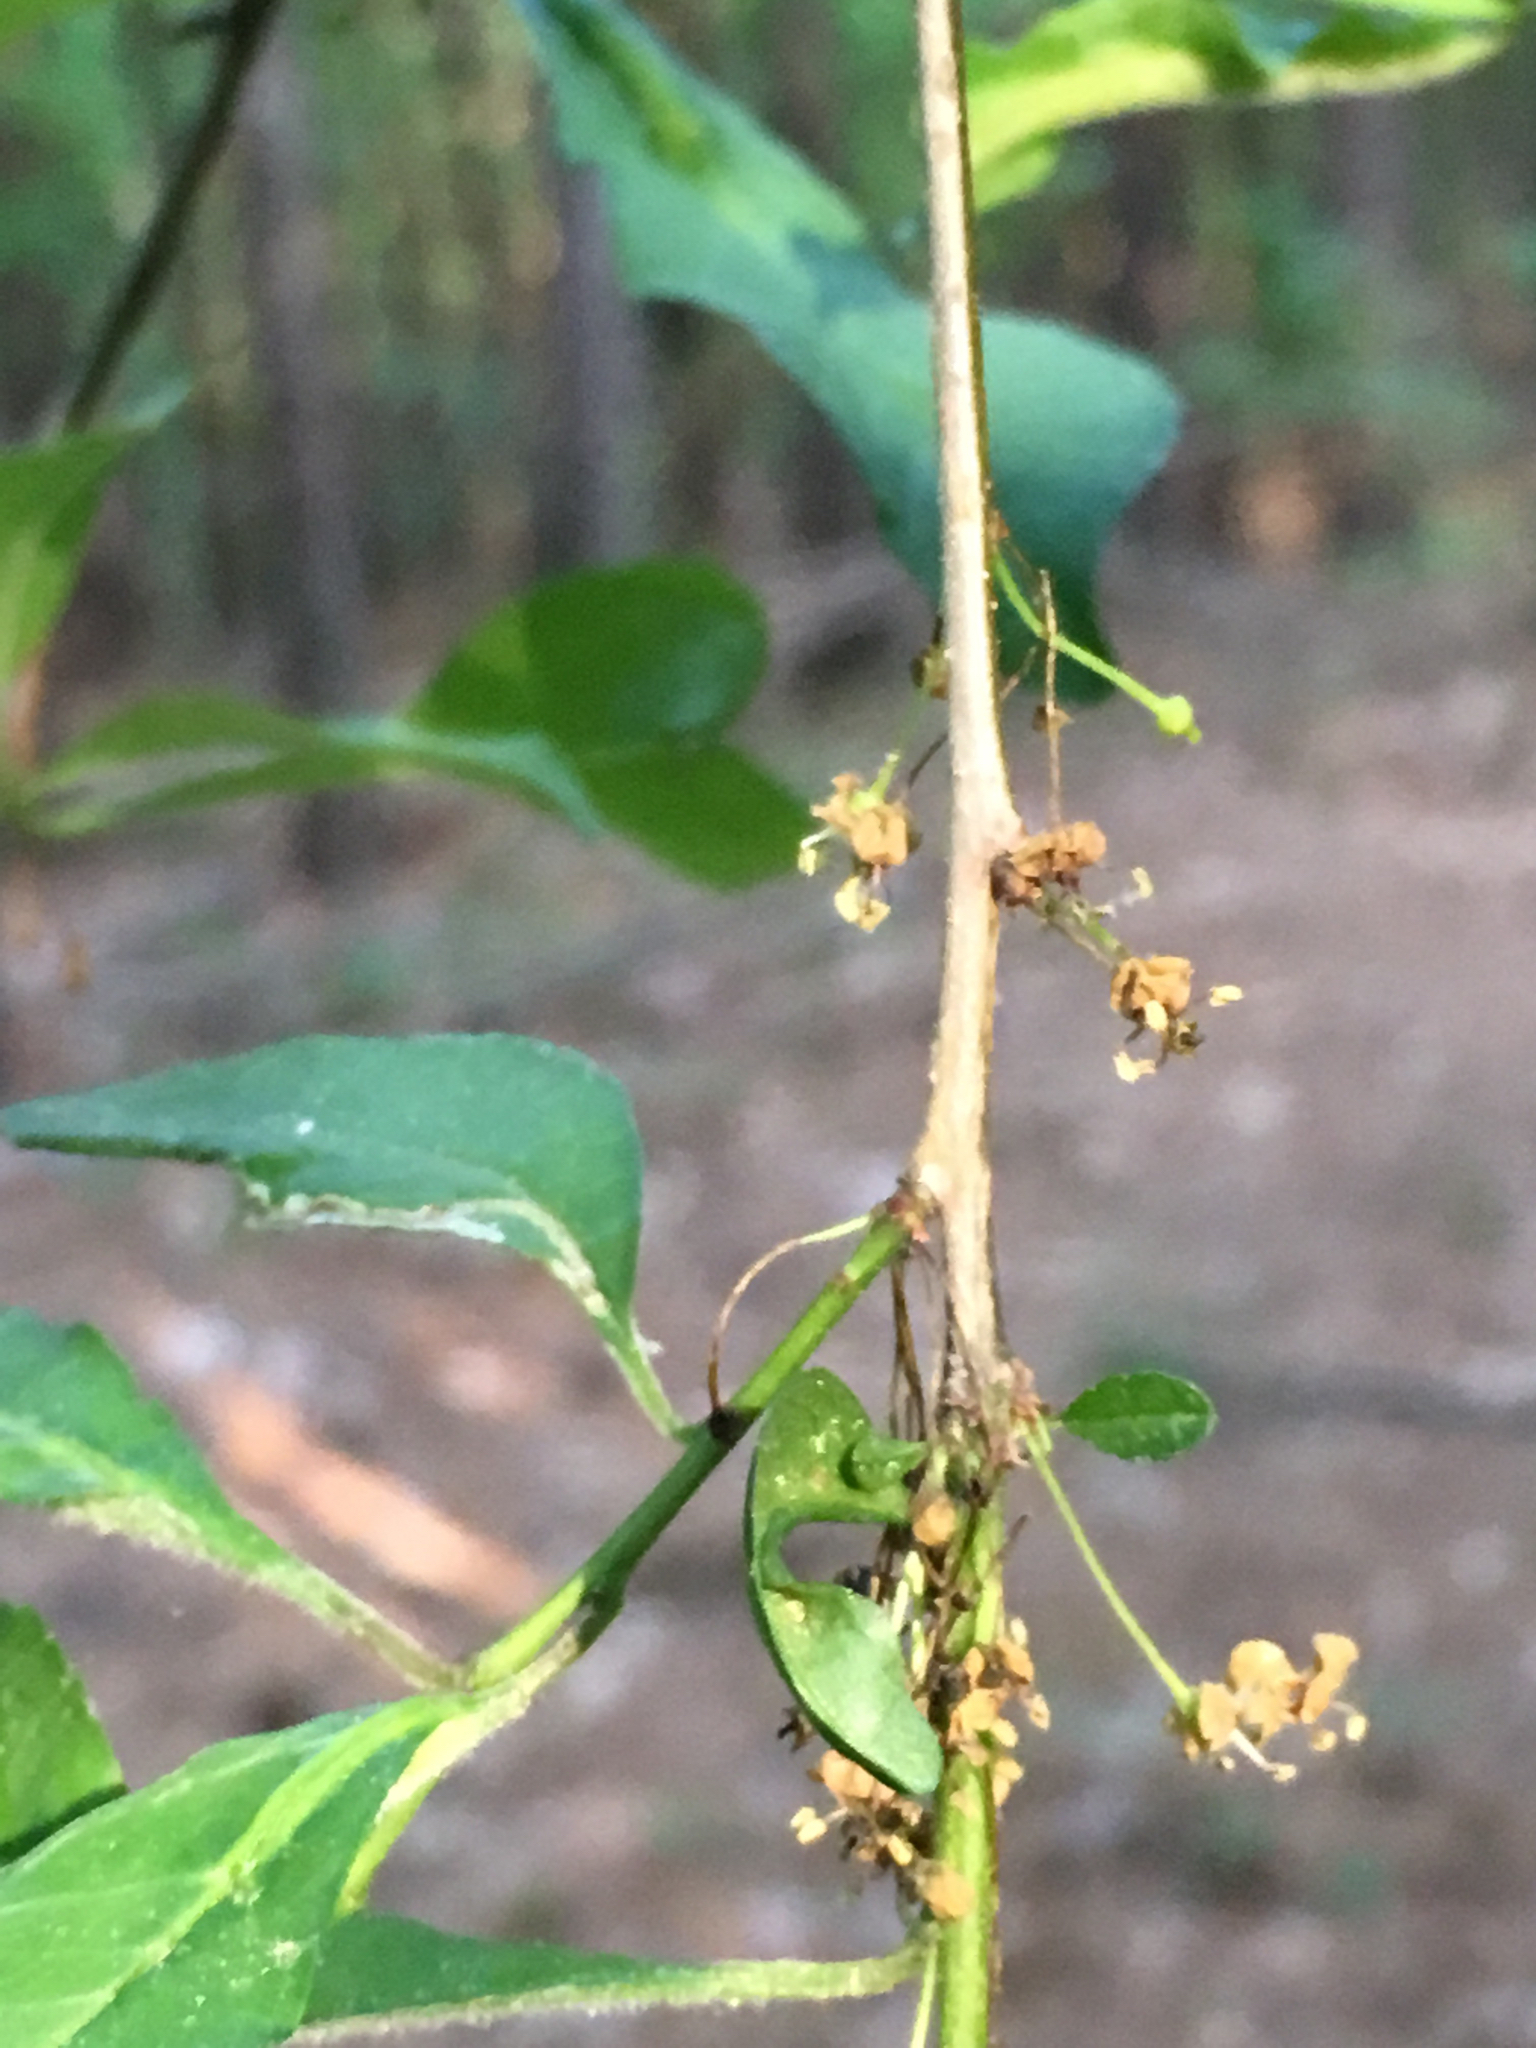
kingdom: Plantae
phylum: Tracheophyta
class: Magnoliopsida
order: Aquifoliales
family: Aquifoliaceae
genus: Ilex
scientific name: Ilex longipes
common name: Georgia holly
